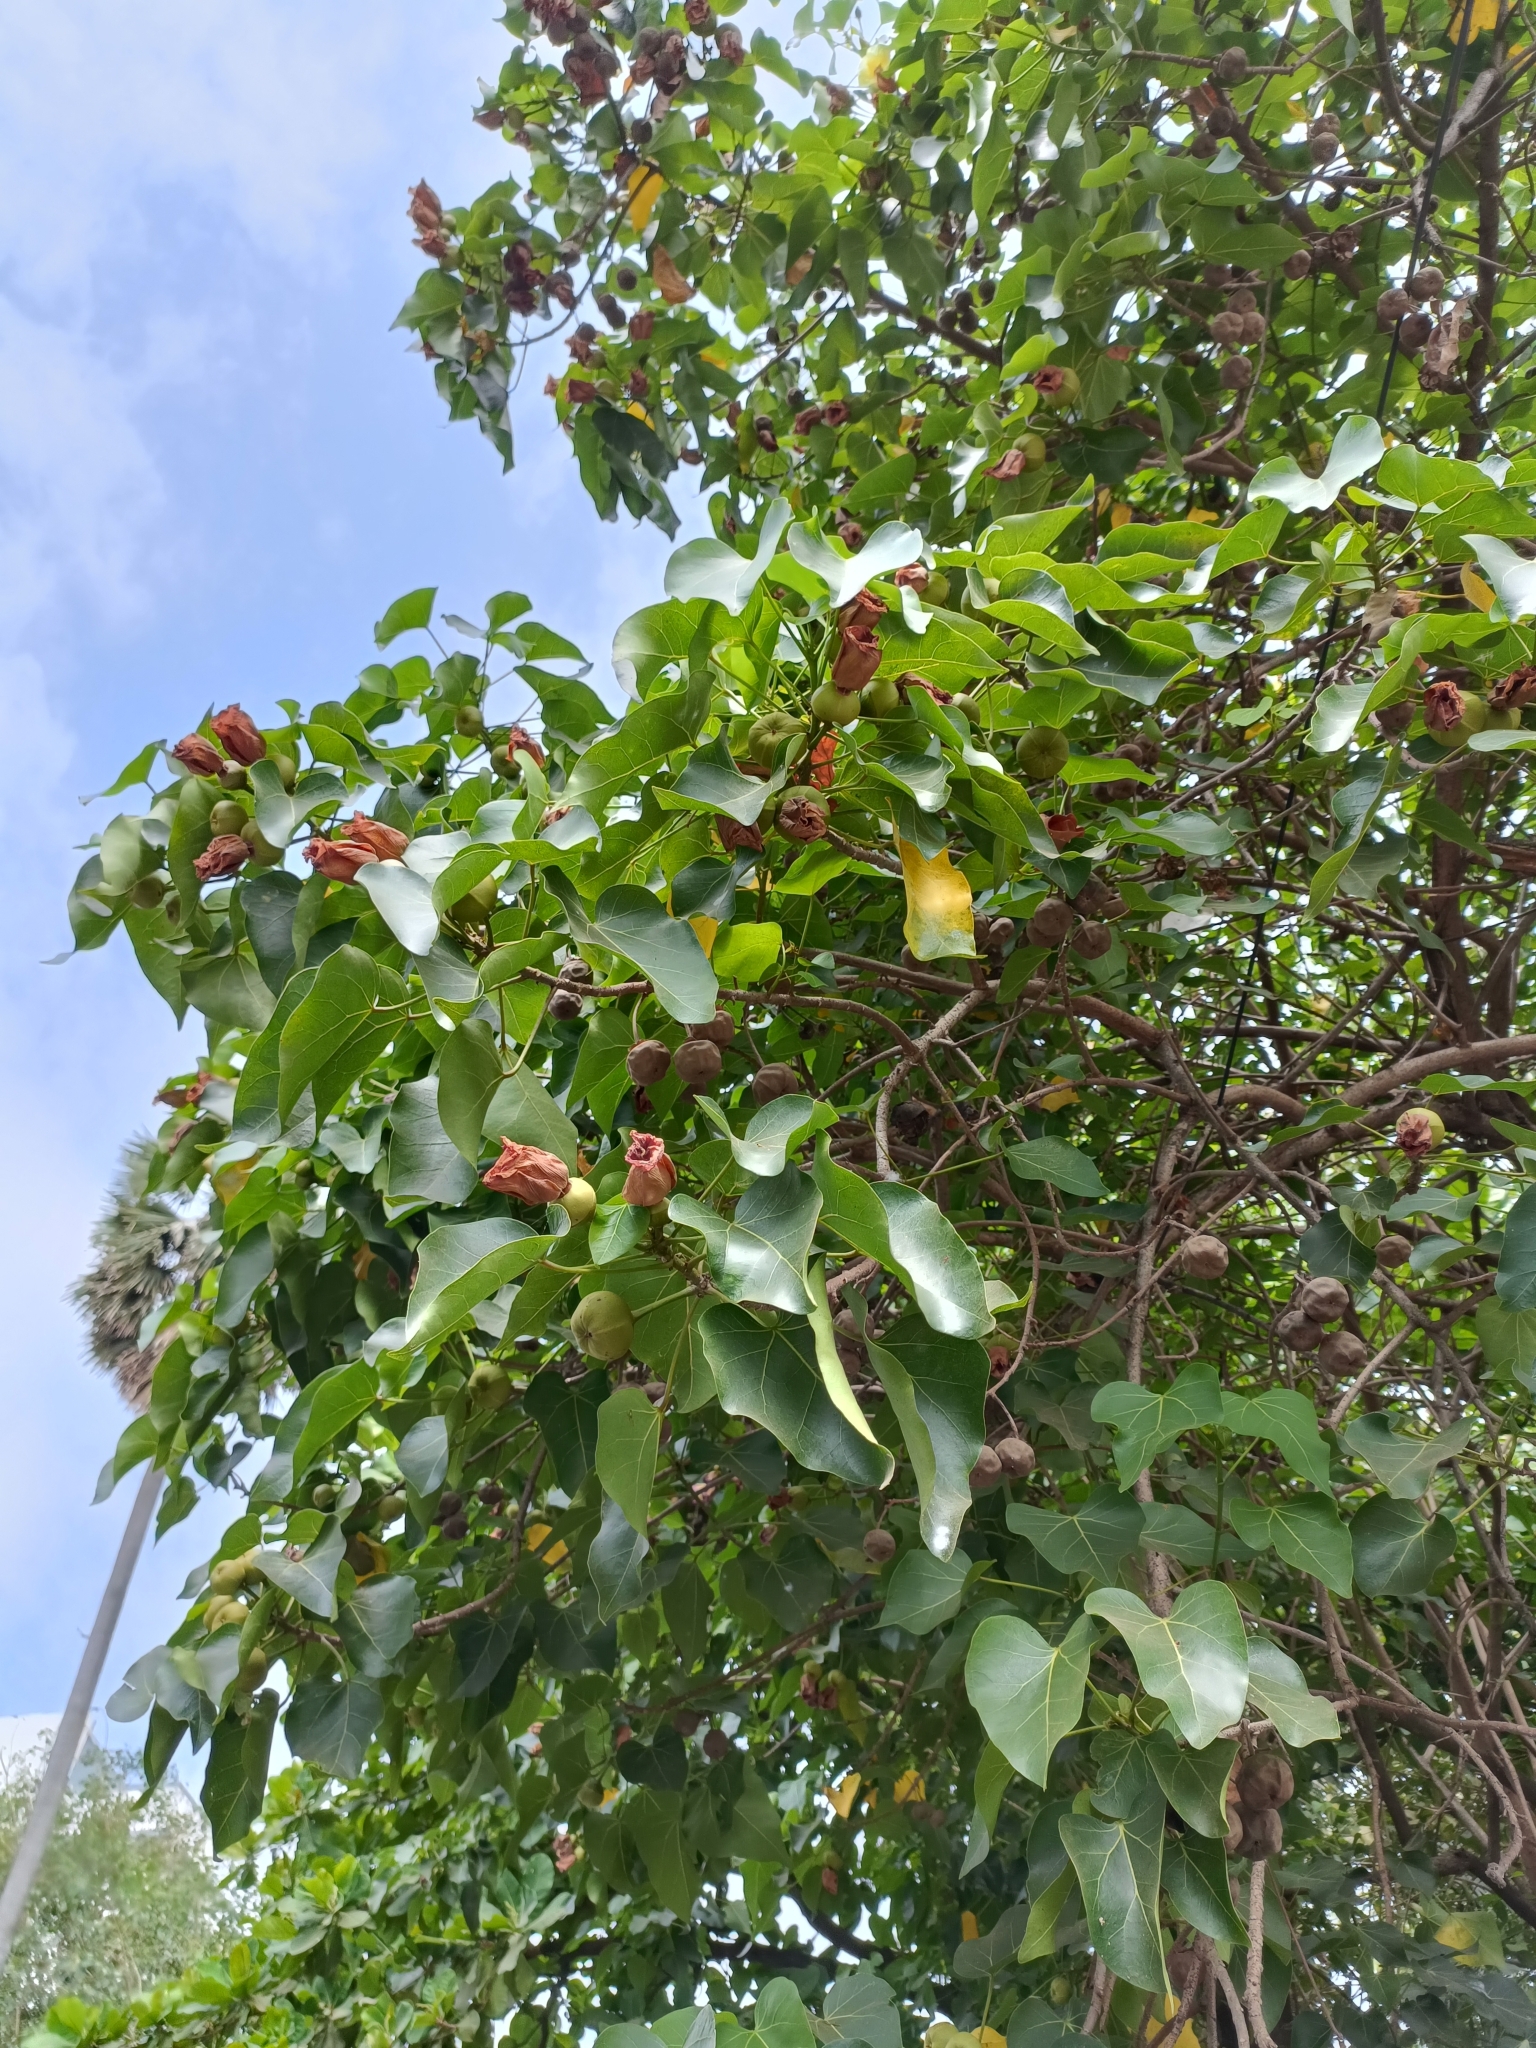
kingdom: Plantae
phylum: Tracheophyta
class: Magnoliopsida
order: Malvales
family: Malvaceae
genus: Thespesia
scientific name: Thespesia populnea
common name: Seaside mahoe
